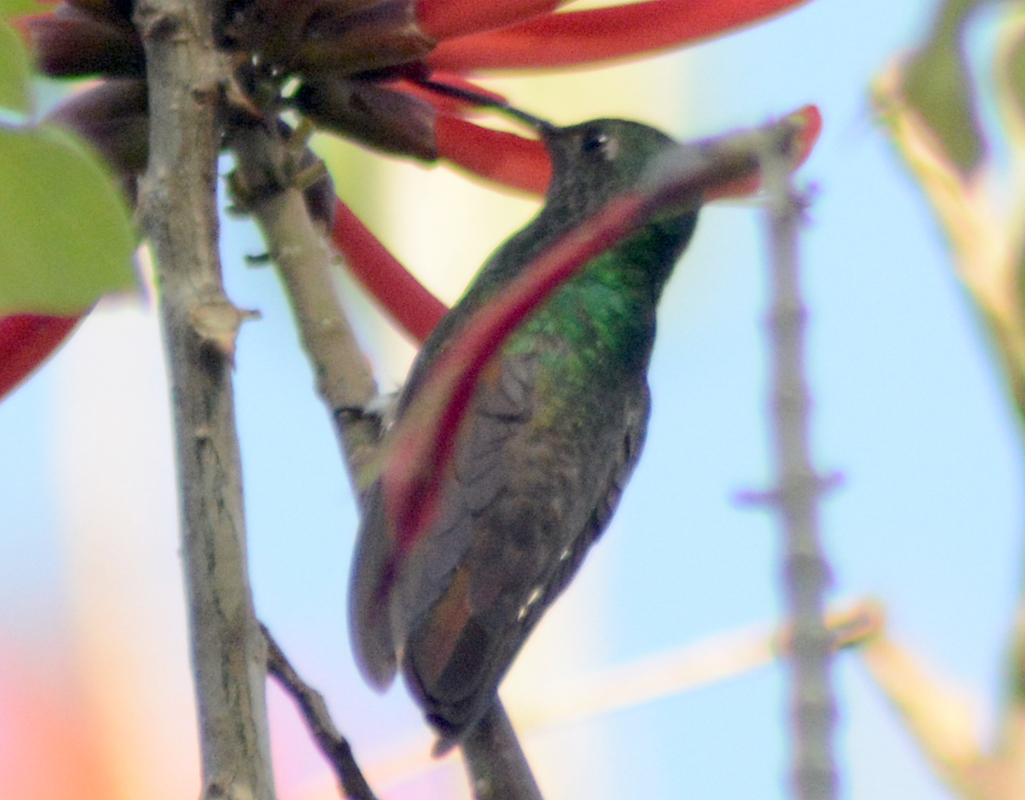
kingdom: Animalia
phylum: Chordata
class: Aves
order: Apodiformes
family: Trochilidae
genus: Saucerottia
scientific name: Saucerottia beryllina
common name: Berylline hummingbird
